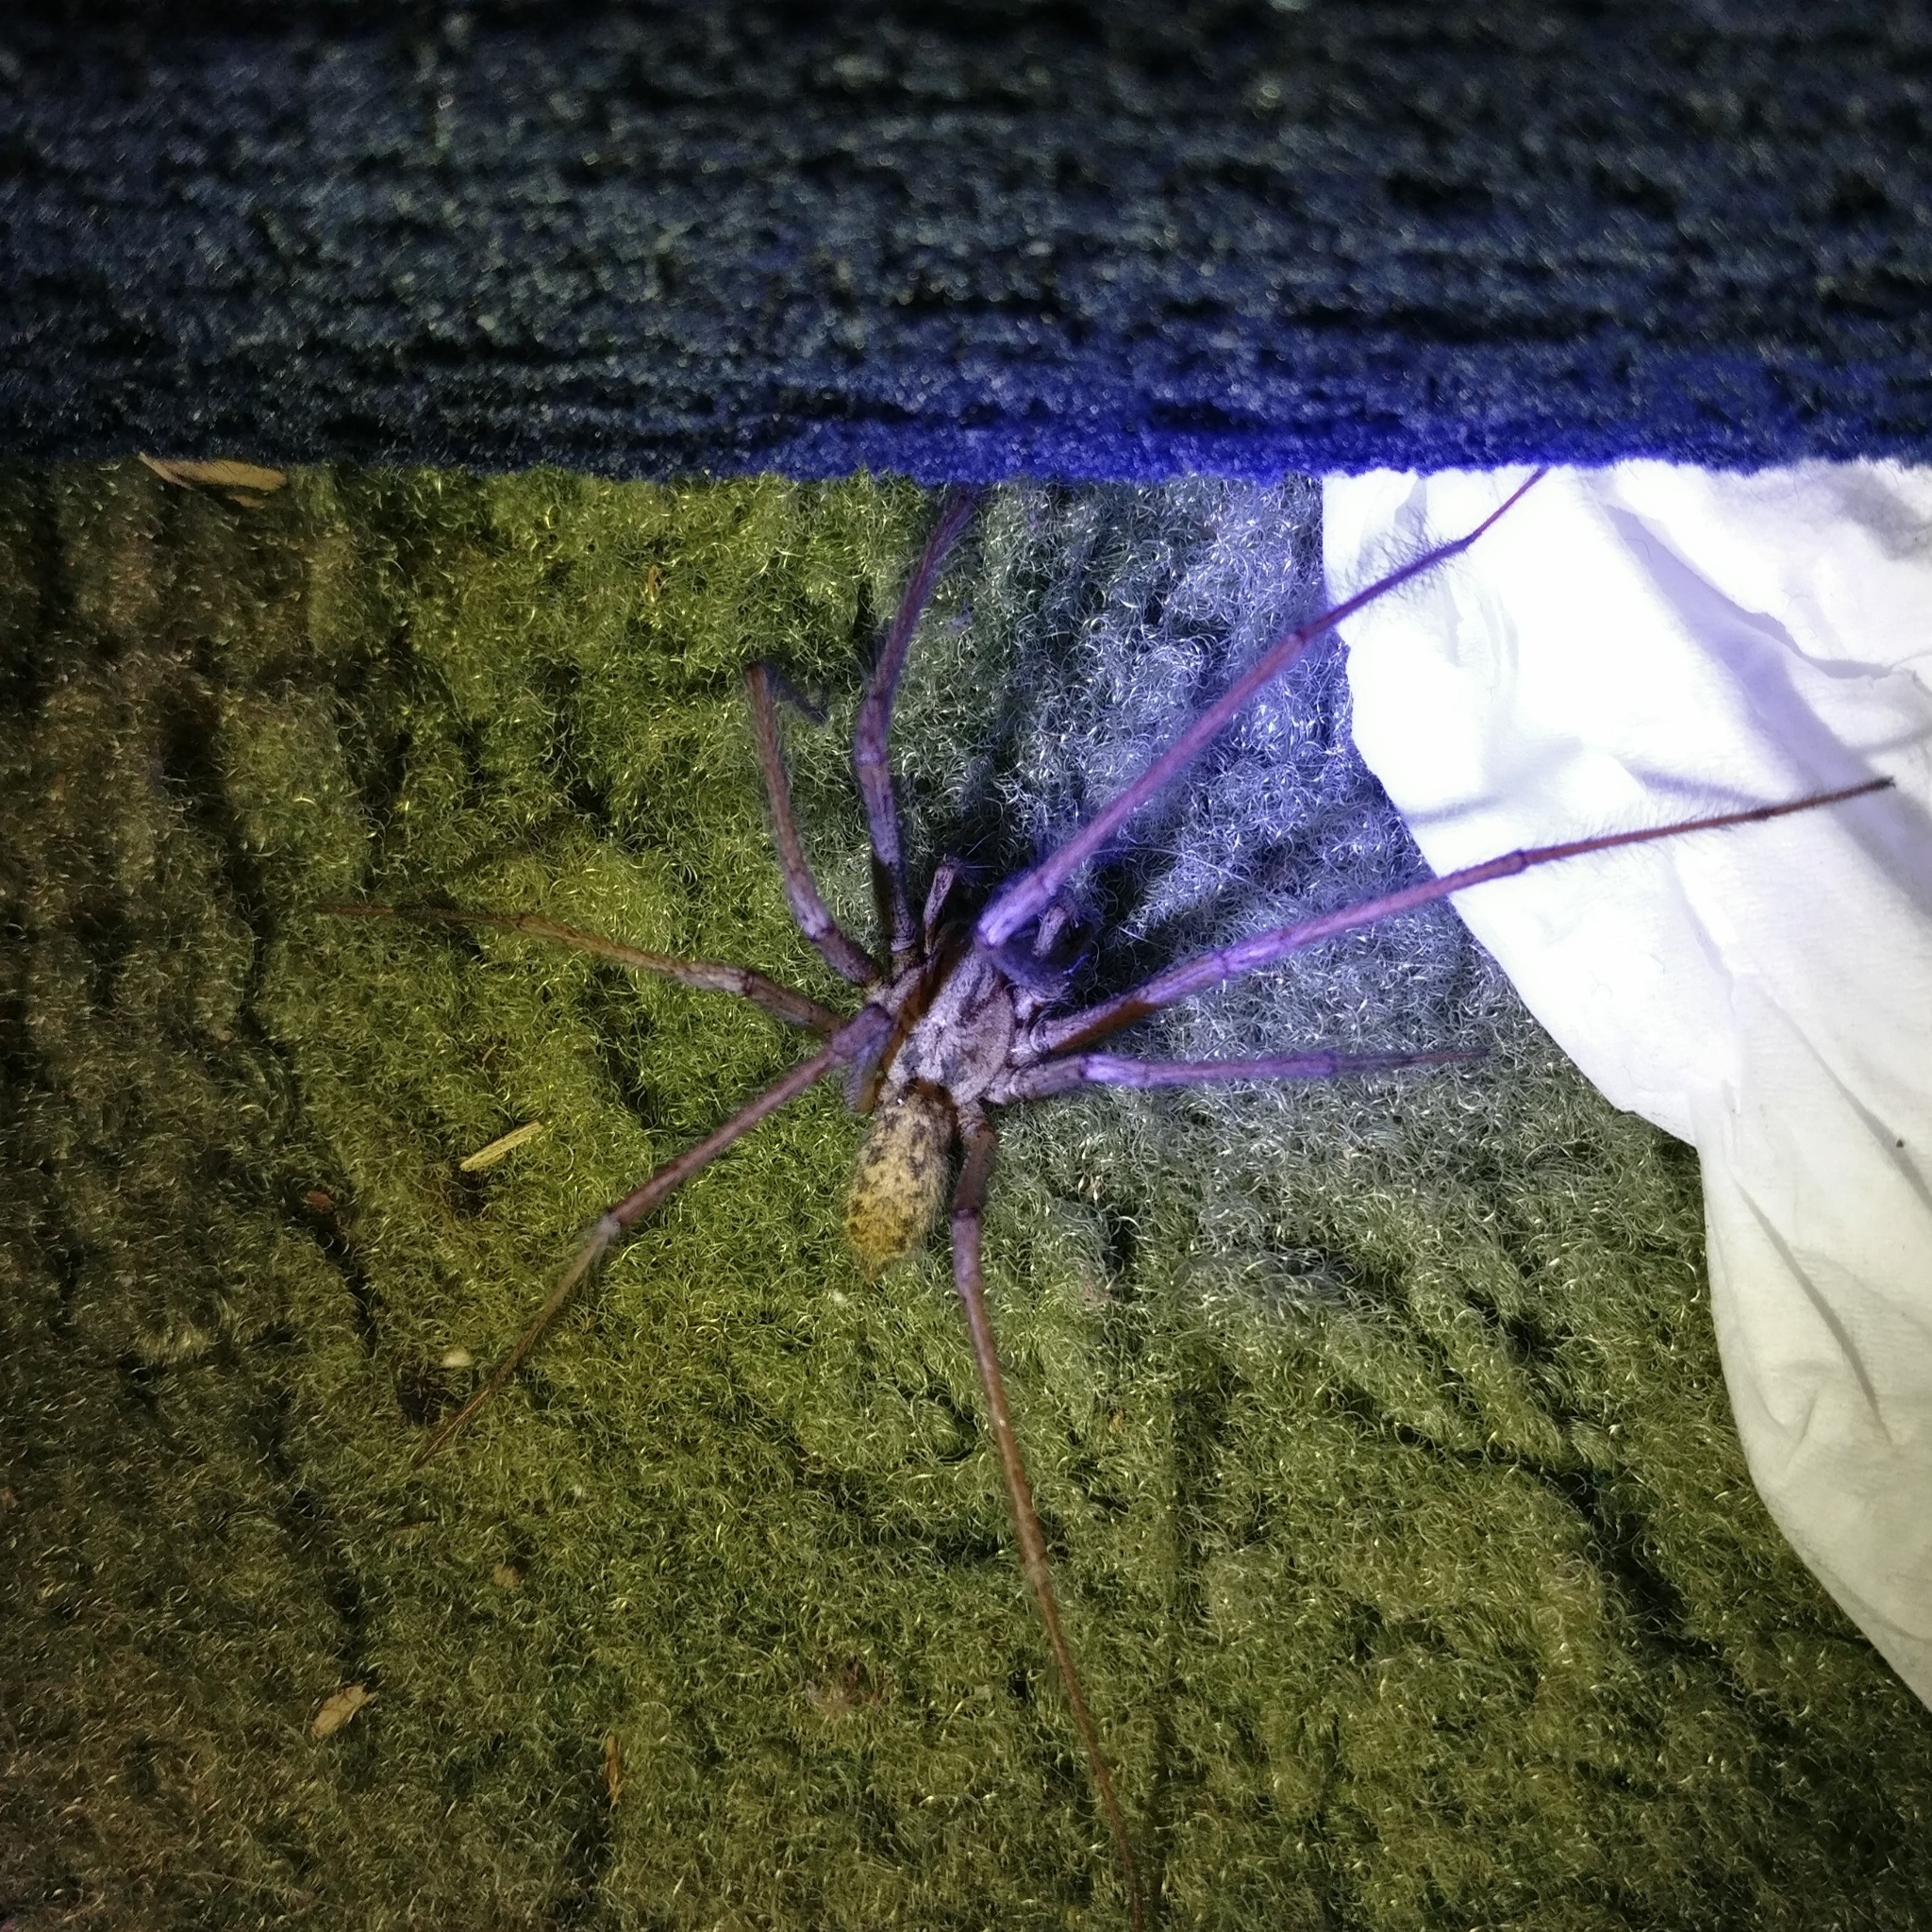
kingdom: Animalia
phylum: Arthropoda
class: Arachnida
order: Araneae
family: Agelenidae
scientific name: Agelenidae
